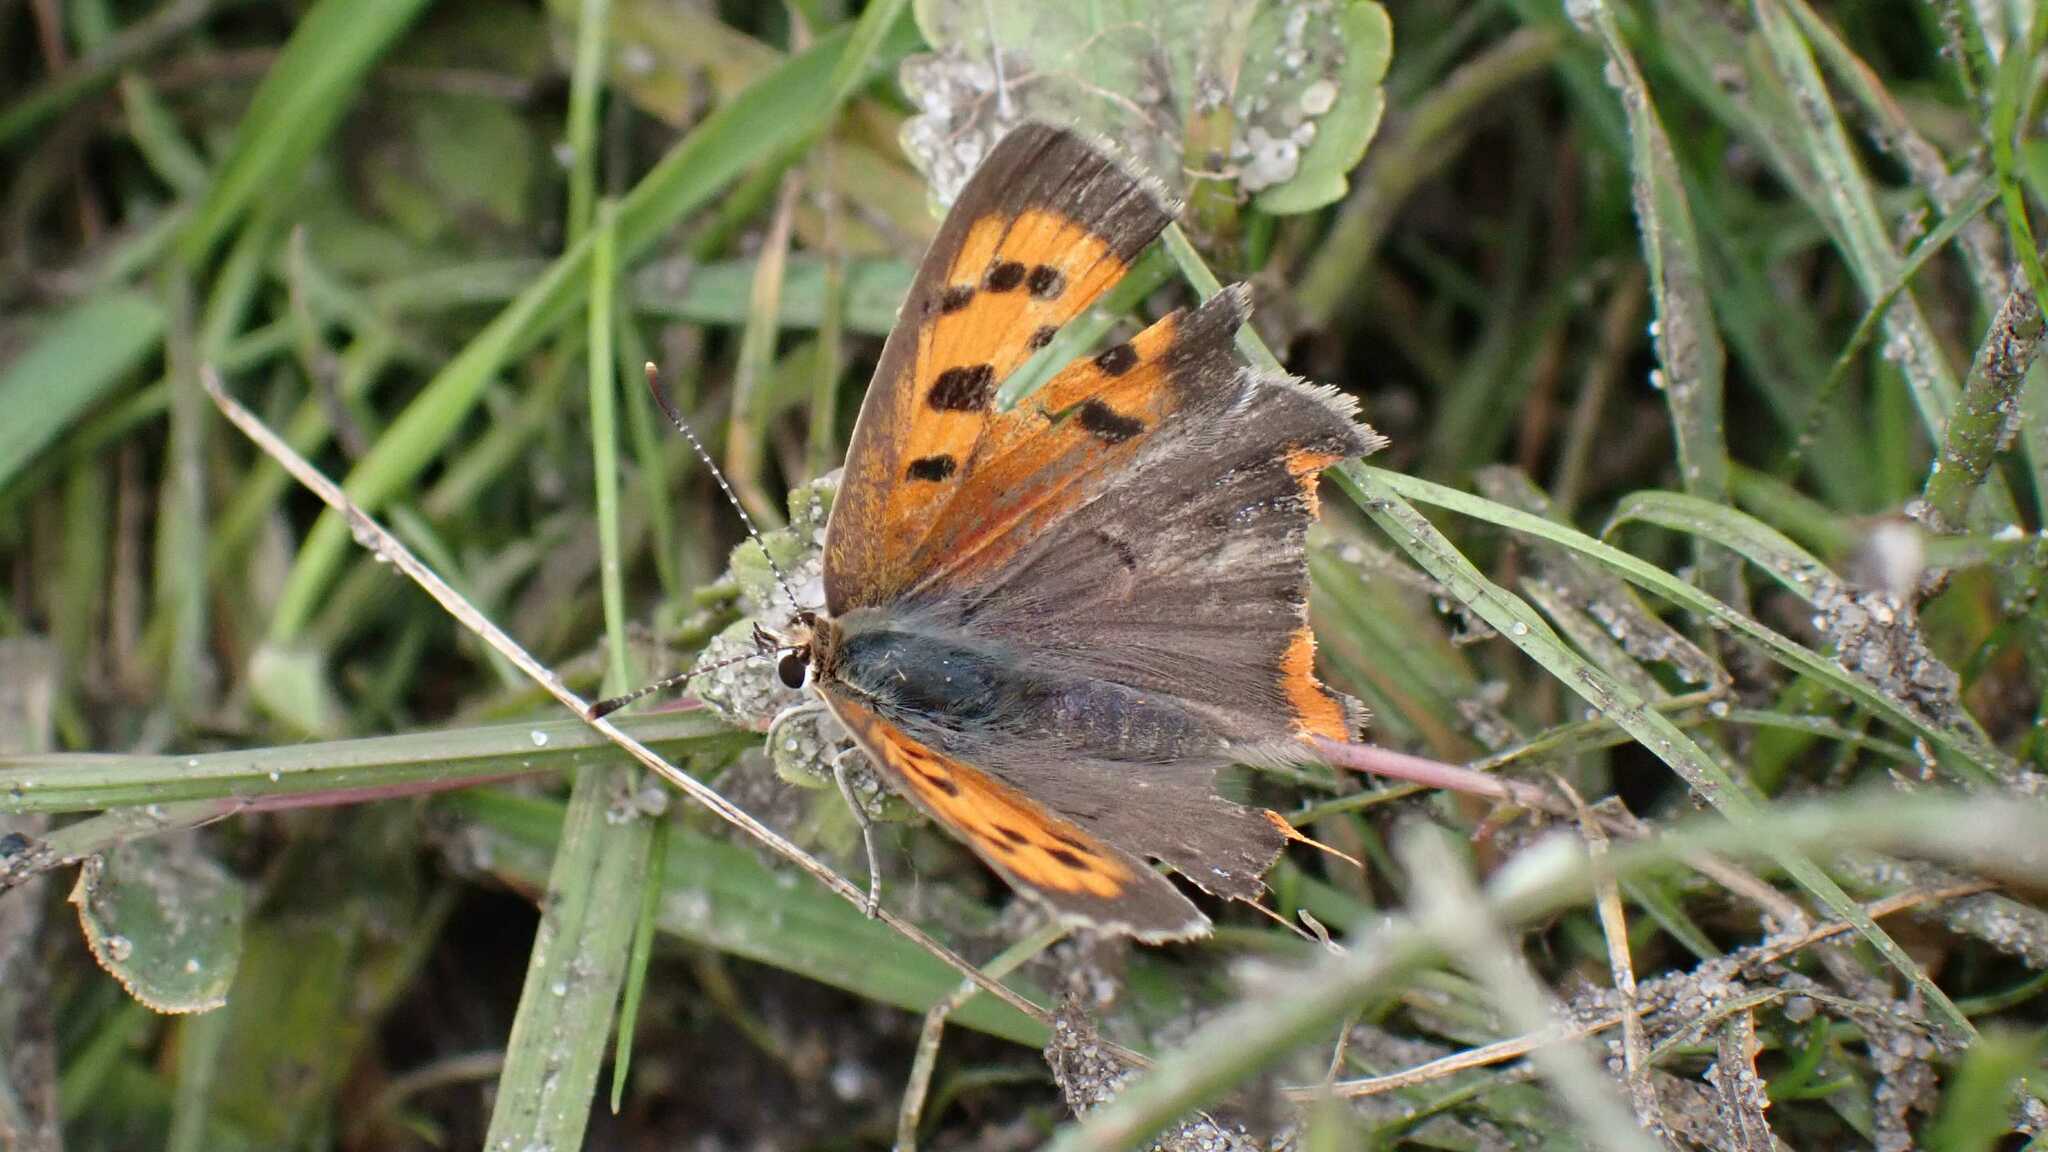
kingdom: Animalia
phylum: Arthropoda
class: Insecta
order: Lepidoptera
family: Lycaenidae
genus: Lycaena
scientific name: Lycaena phlaeas
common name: Small copper
